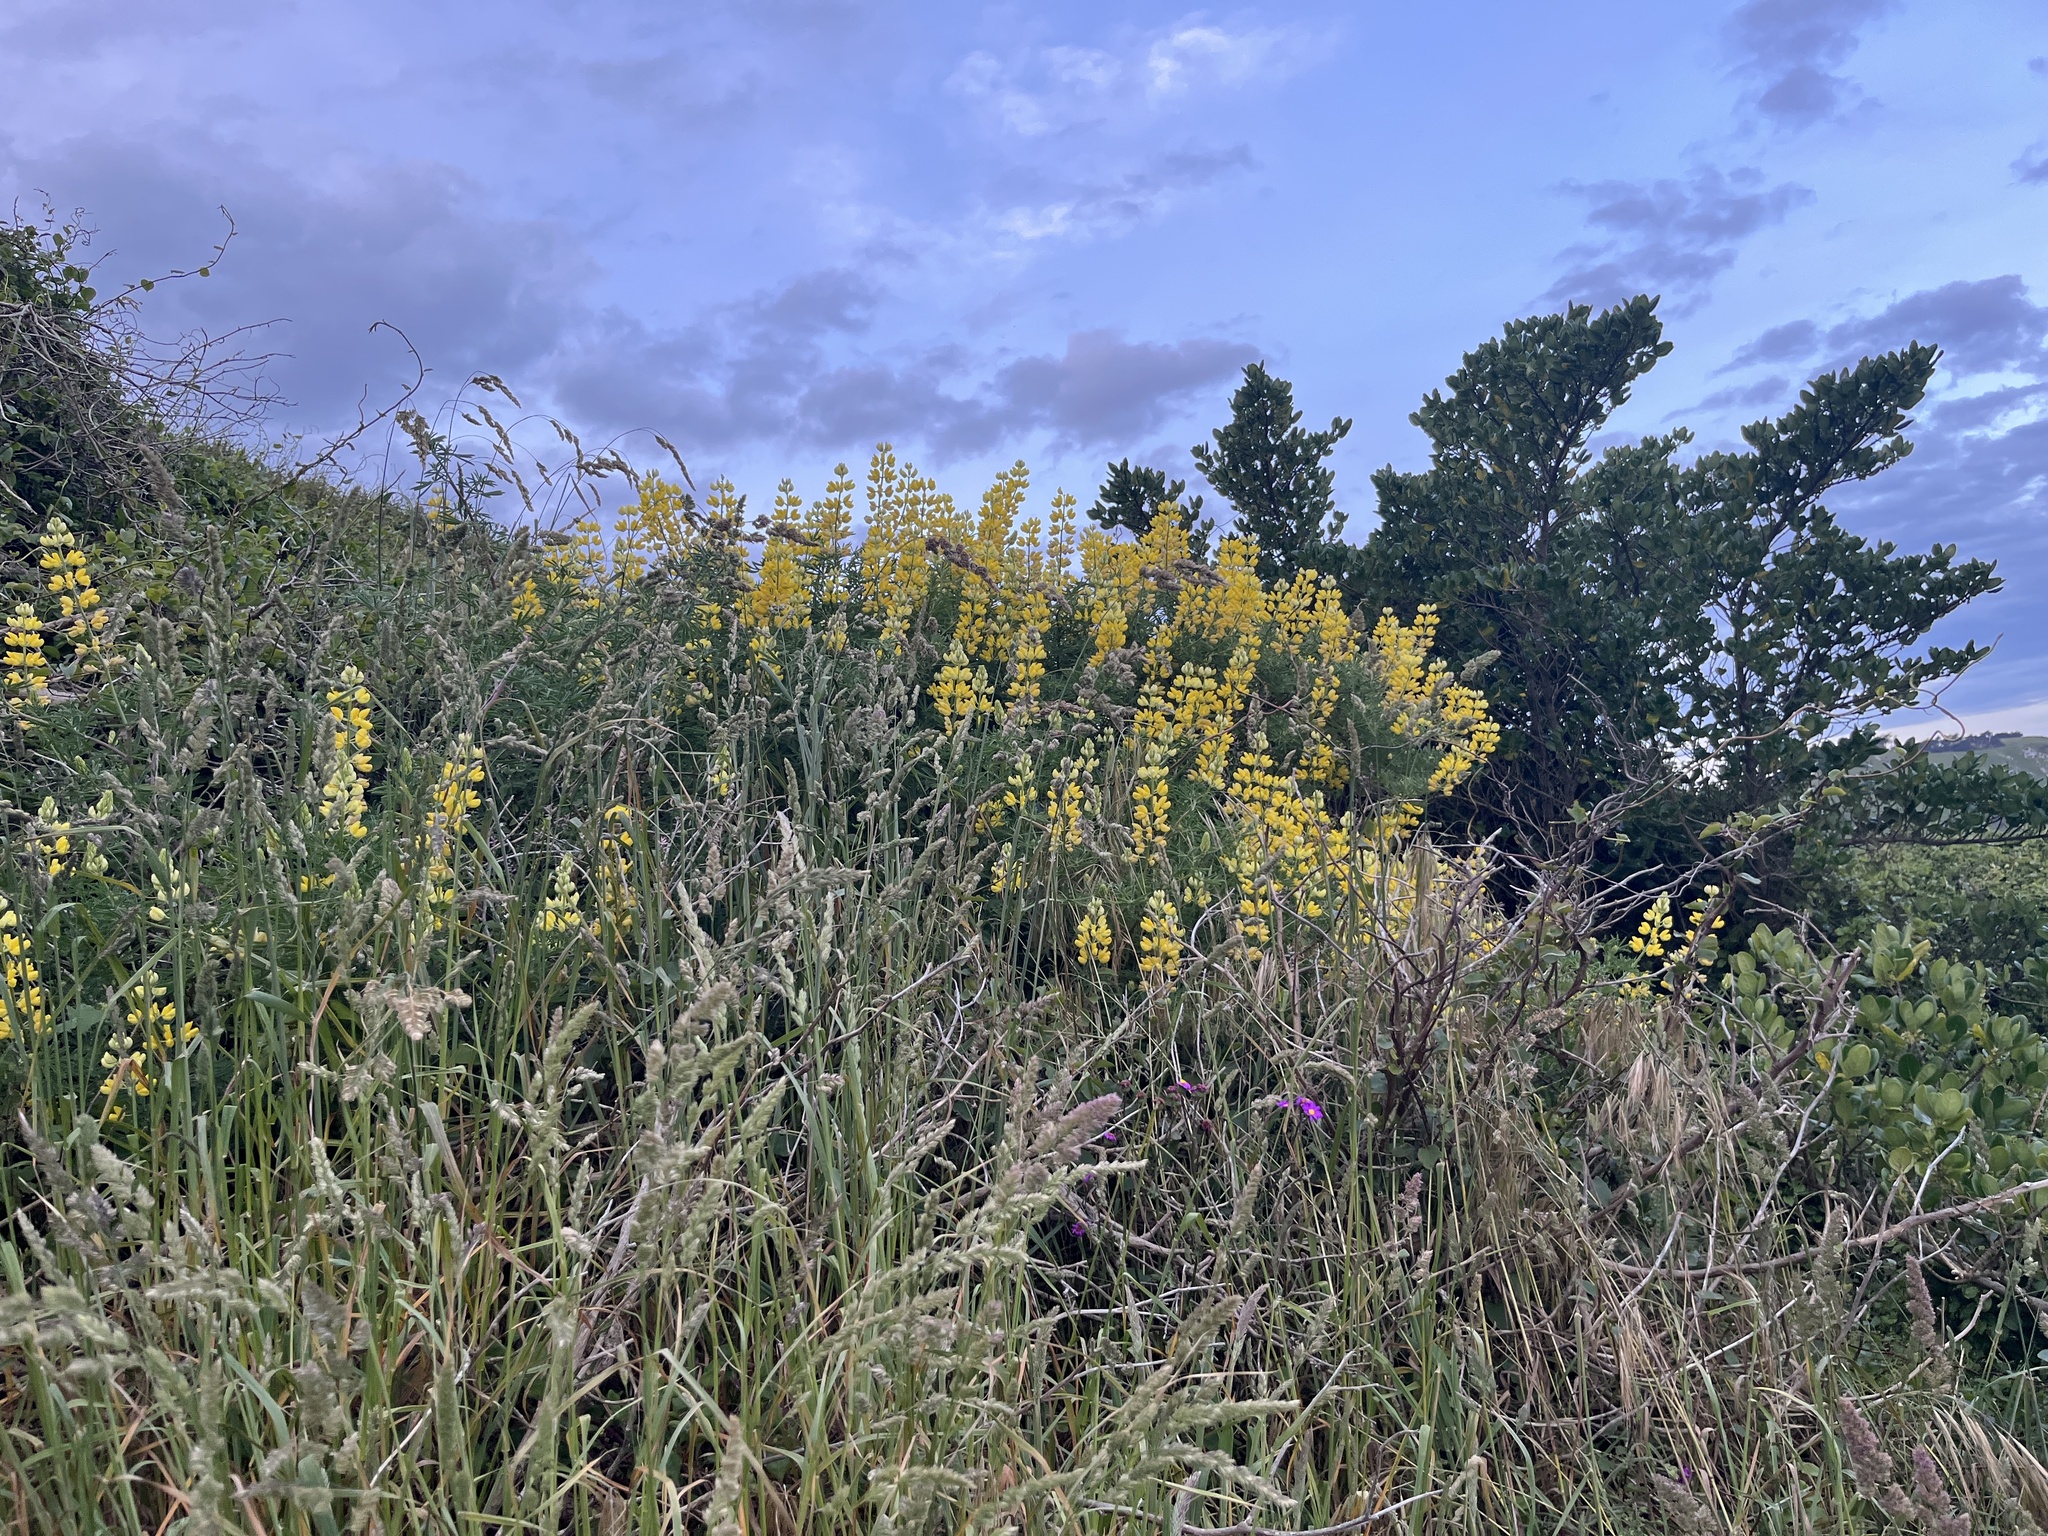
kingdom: Plantae
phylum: Tracheophyta
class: Magnoliopsida
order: Fabales
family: Fabaceae
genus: Lupinus
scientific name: Lupinus arboreus
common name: Yellow bush lupine
